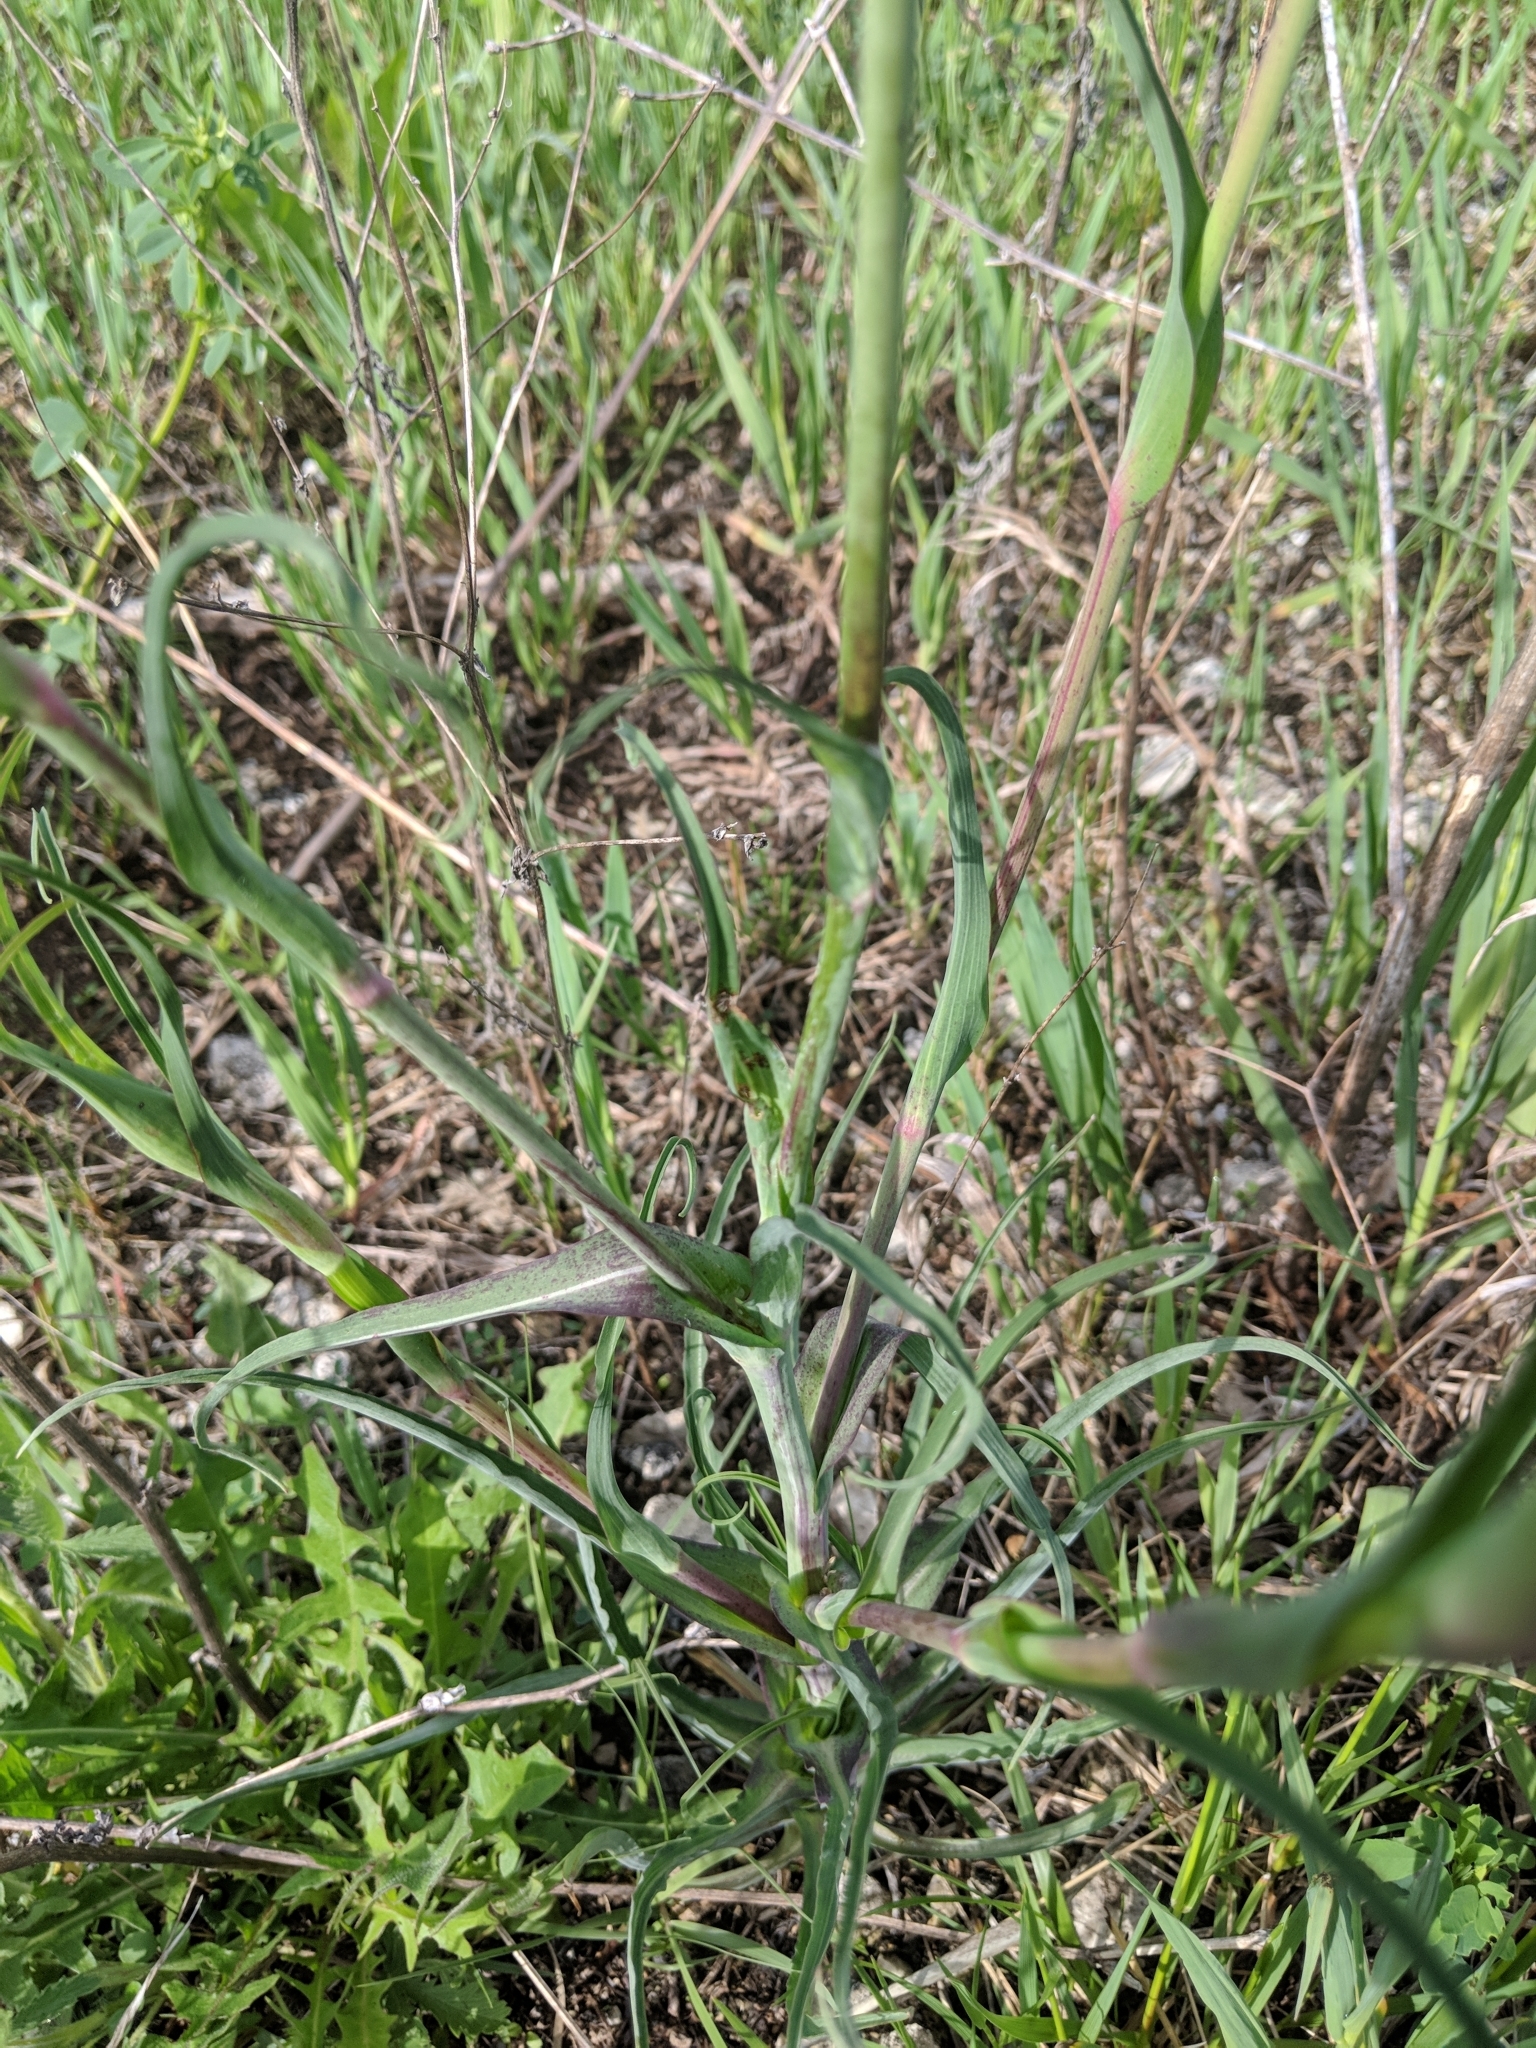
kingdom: Plantae
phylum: Tracheophyta
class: Magnoliopsida
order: Asterales
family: Asteraceae
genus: Tragopogon
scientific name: Tragopogon pratensis
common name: Goat's-beard
